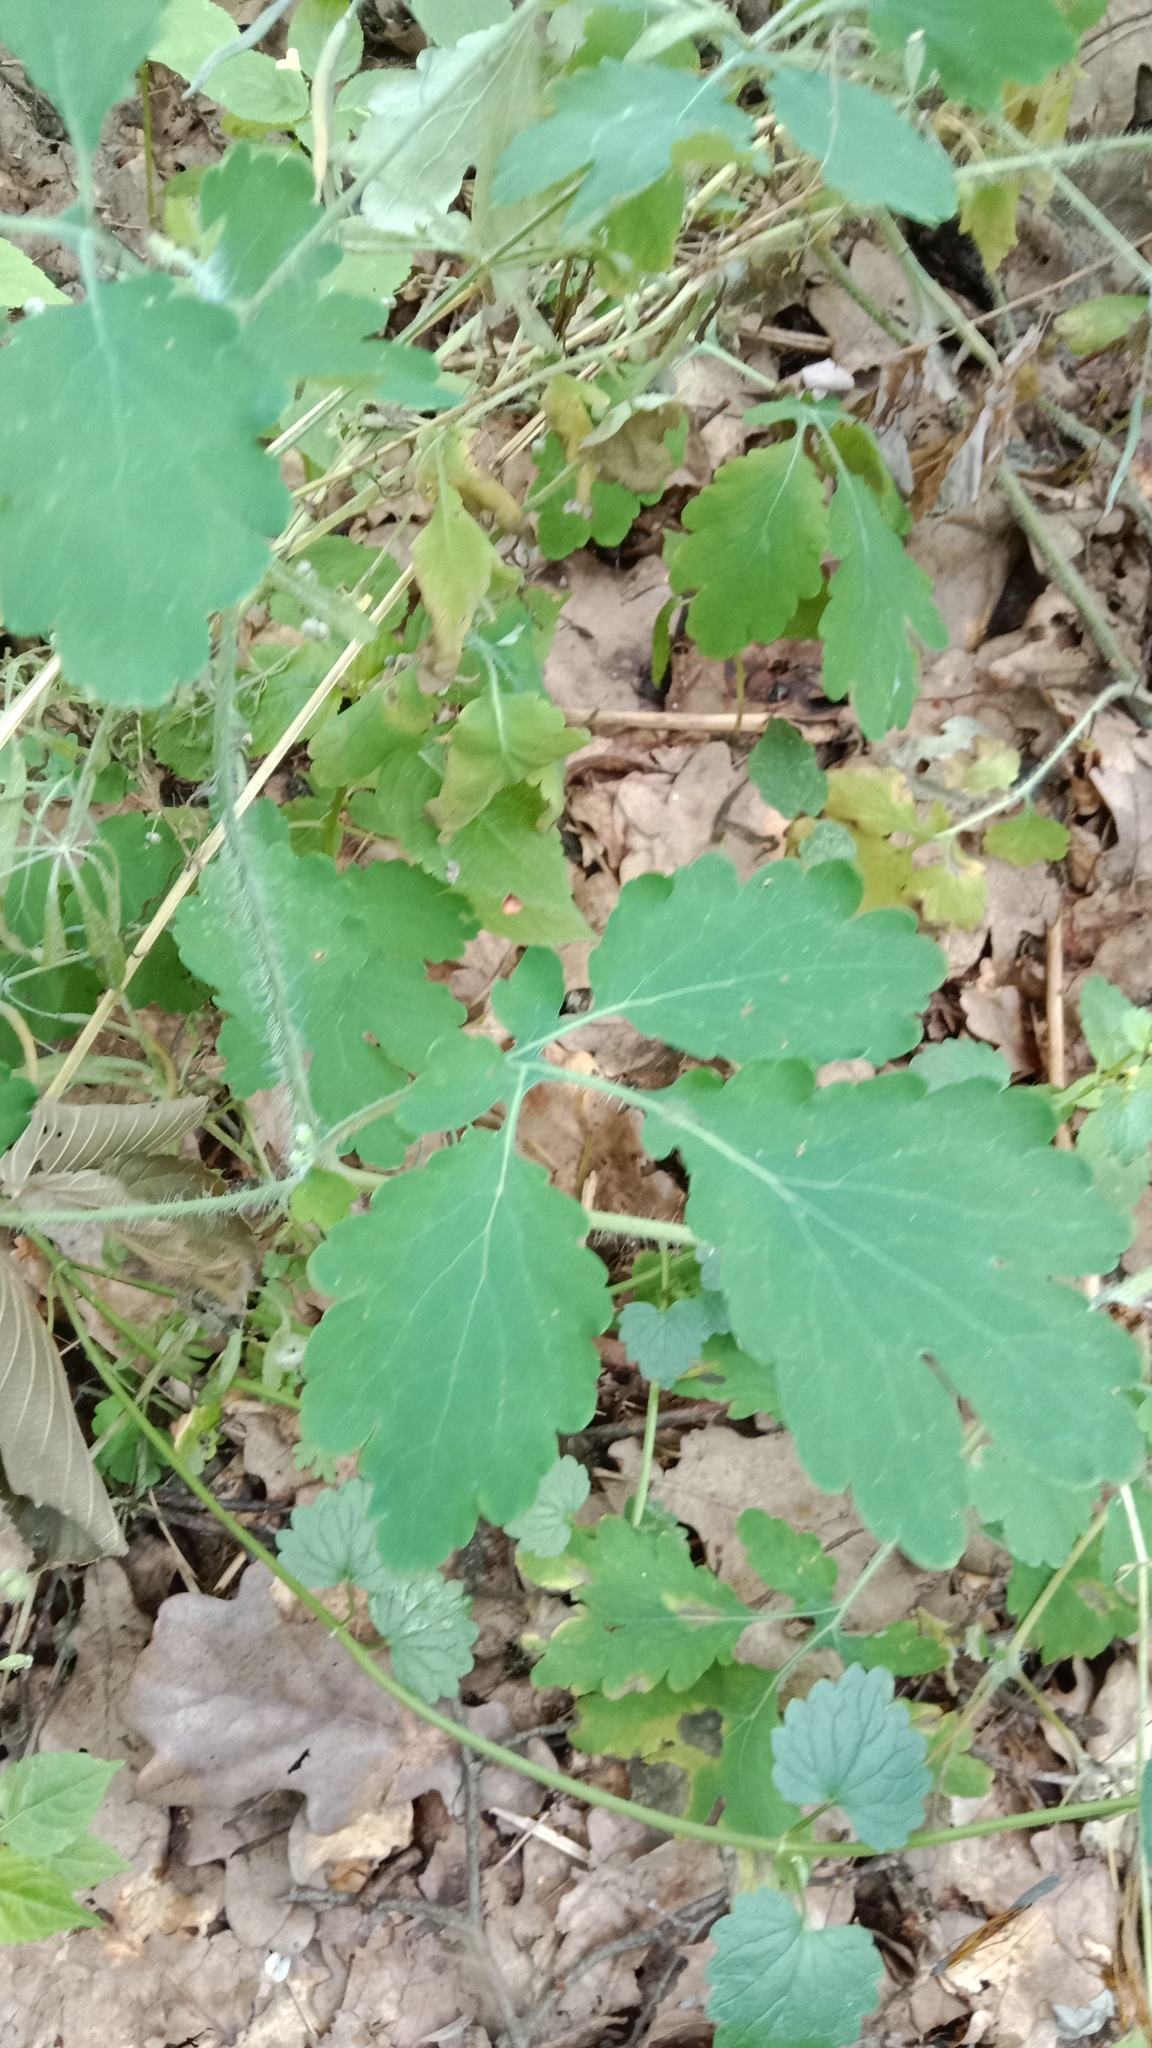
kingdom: Plantae
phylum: Tracheophyta
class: Magnoliopsida
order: Ranunculales
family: Papaveraceae
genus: Chelidonium
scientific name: Chelidonium majus
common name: Greater celandine
